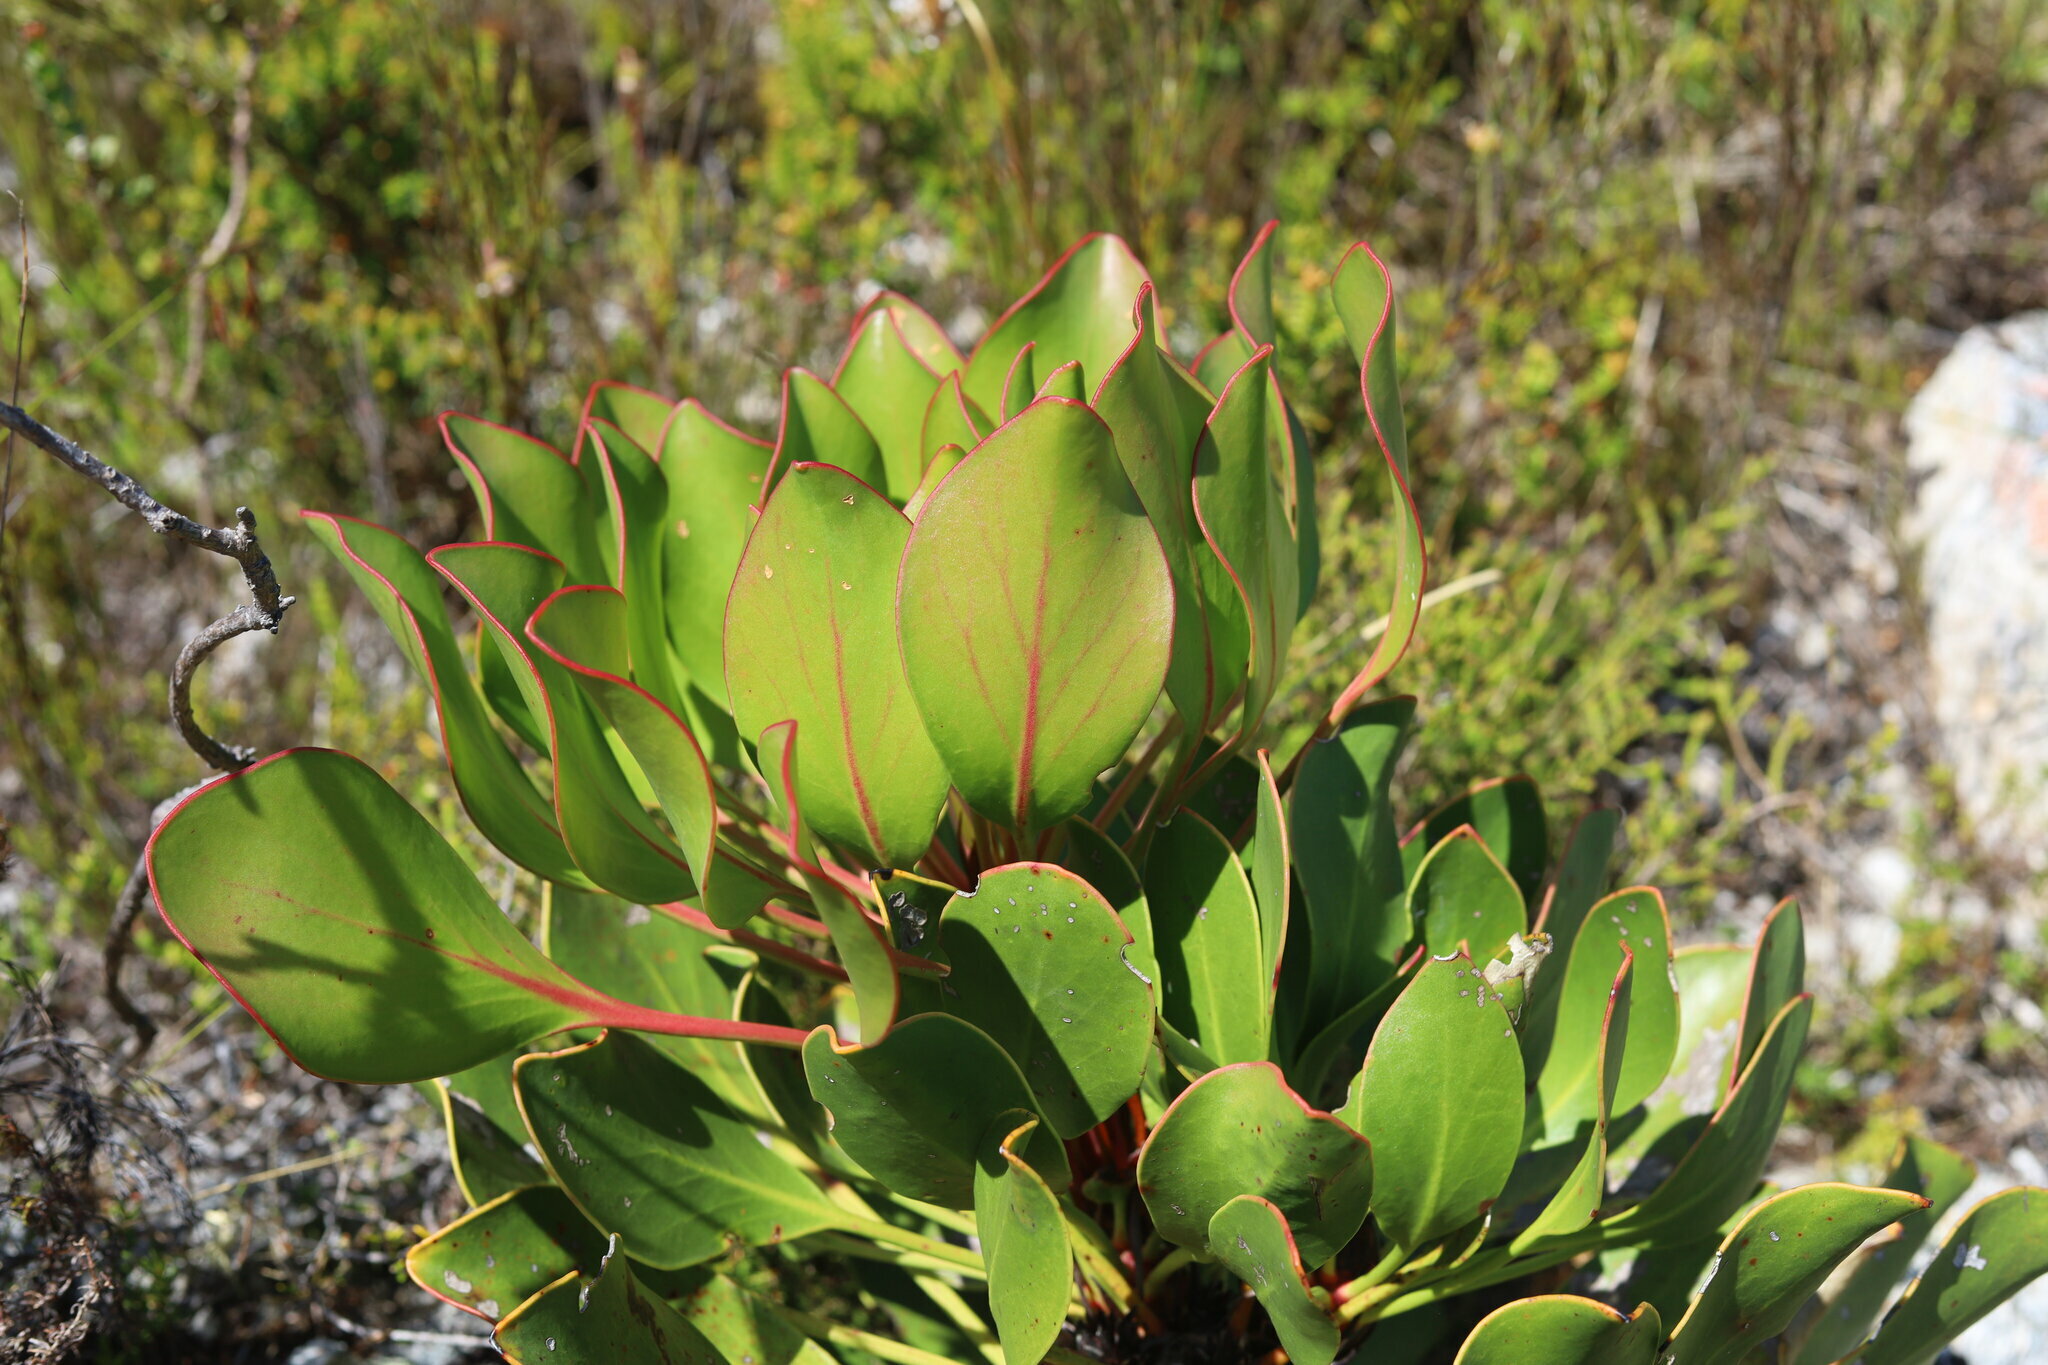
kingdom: Plantae
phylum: Tracheophyta
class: Magnoliopsida
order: Proteales
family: Proteaceae
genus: Protea
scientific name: Protea cynaroides
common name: King protea
